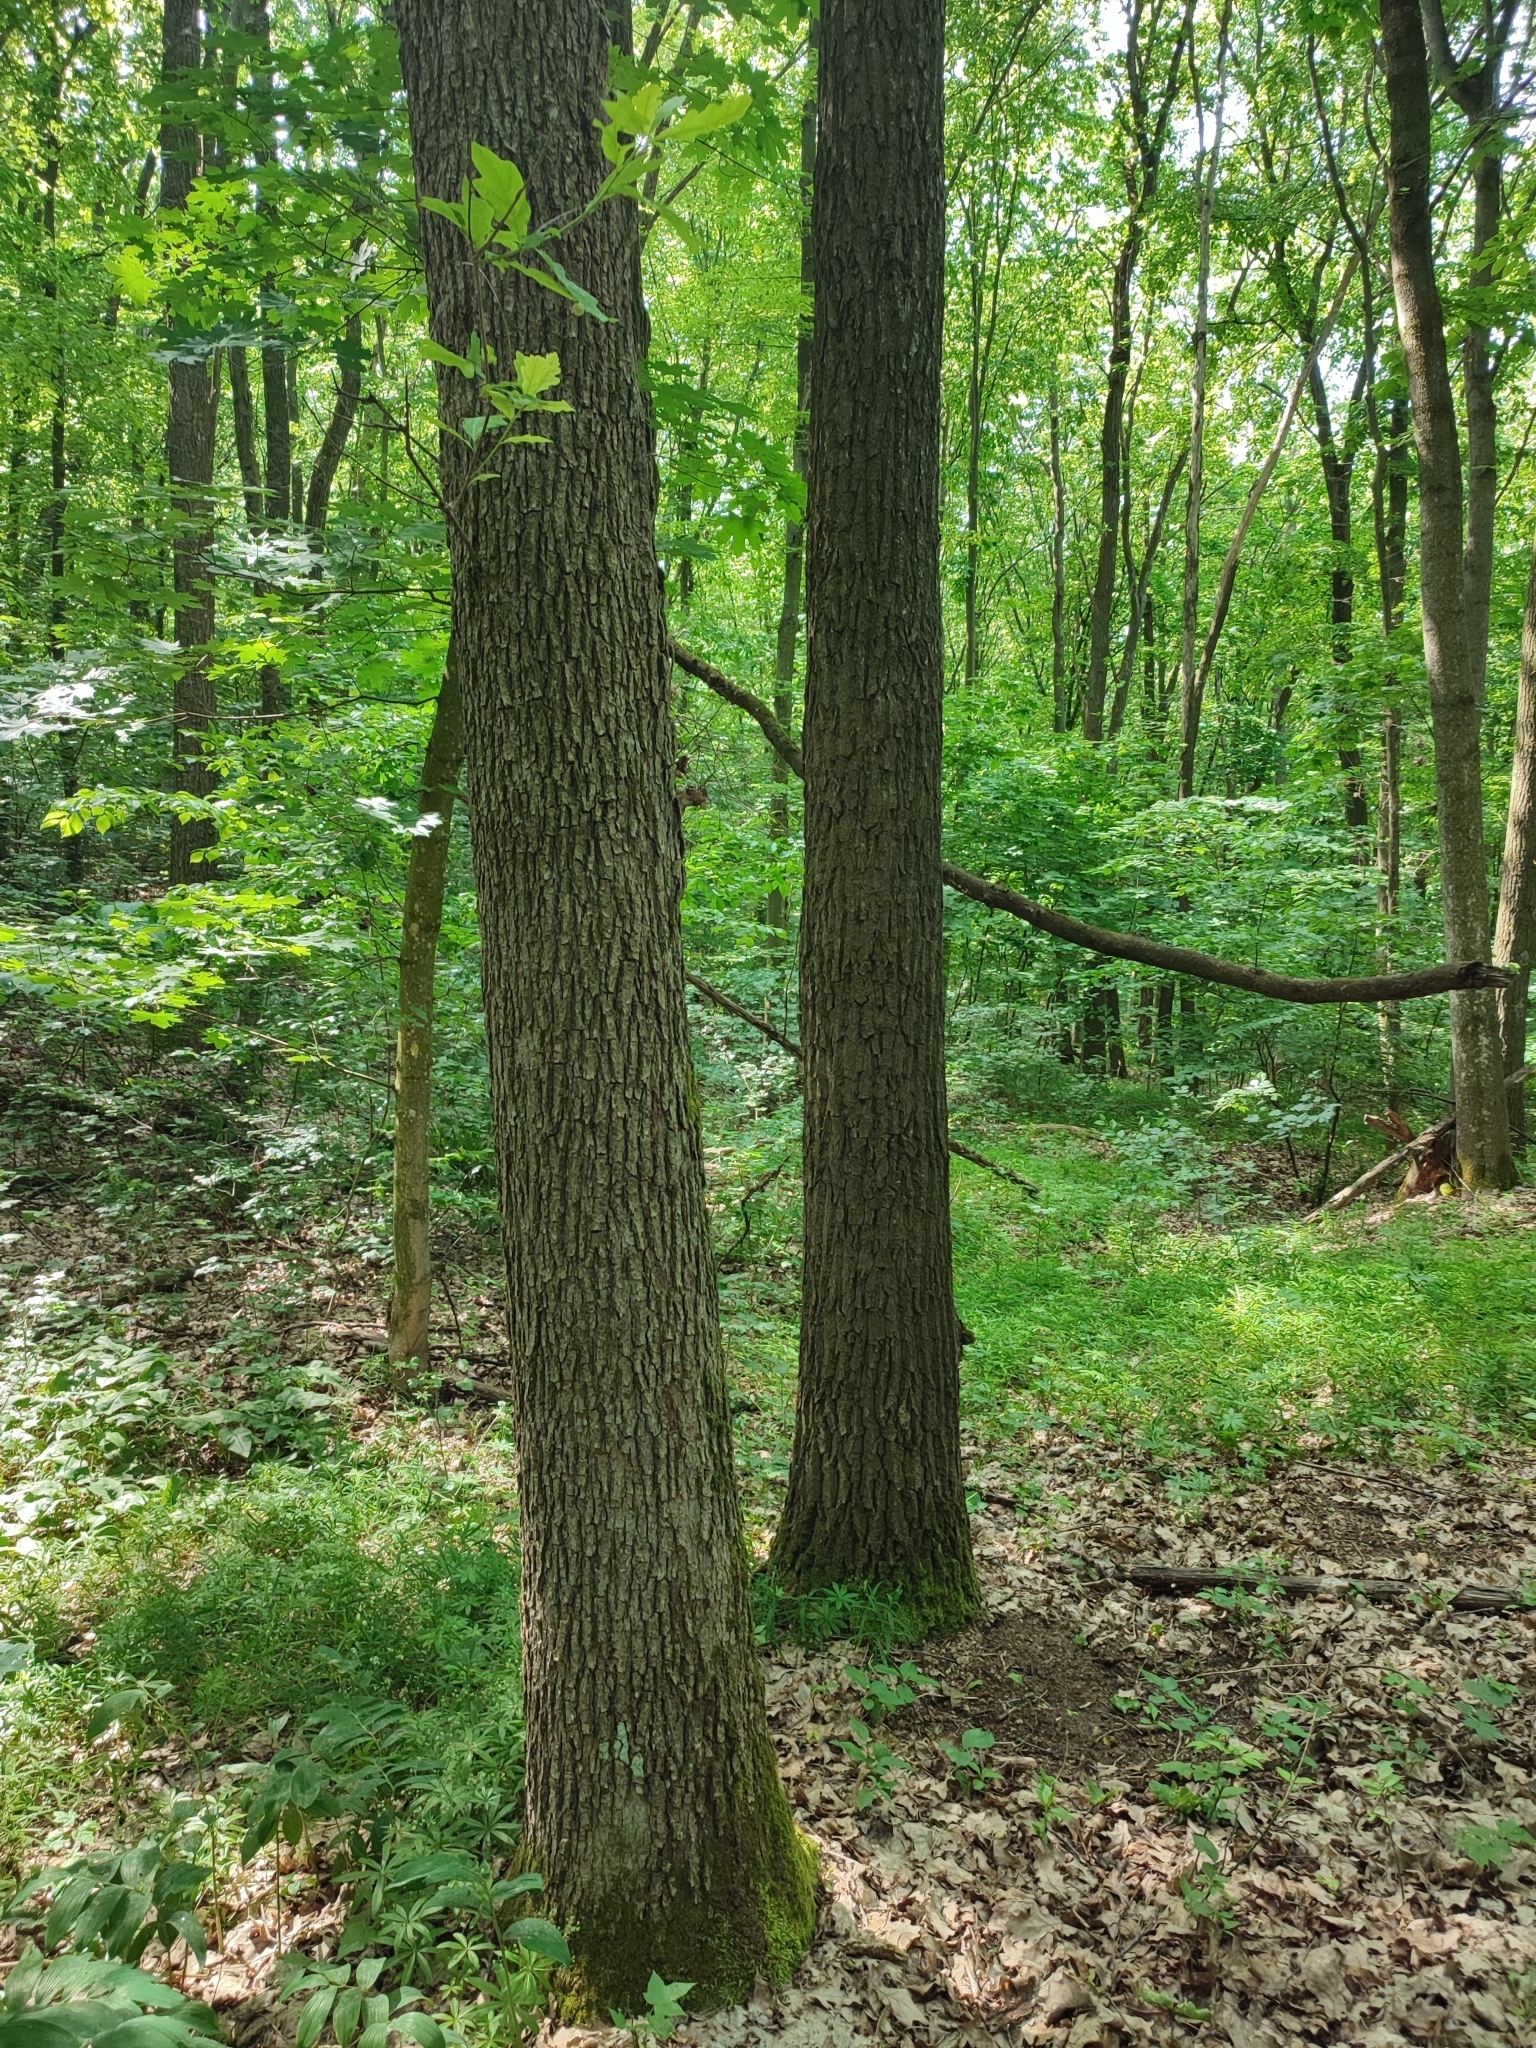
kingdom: Plantae
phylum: Tracheophyta
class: Magnoliopsida
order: Fagales
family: Fagaceae
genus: Quercus
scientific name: Quercus robur
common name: Pedunculate oak
